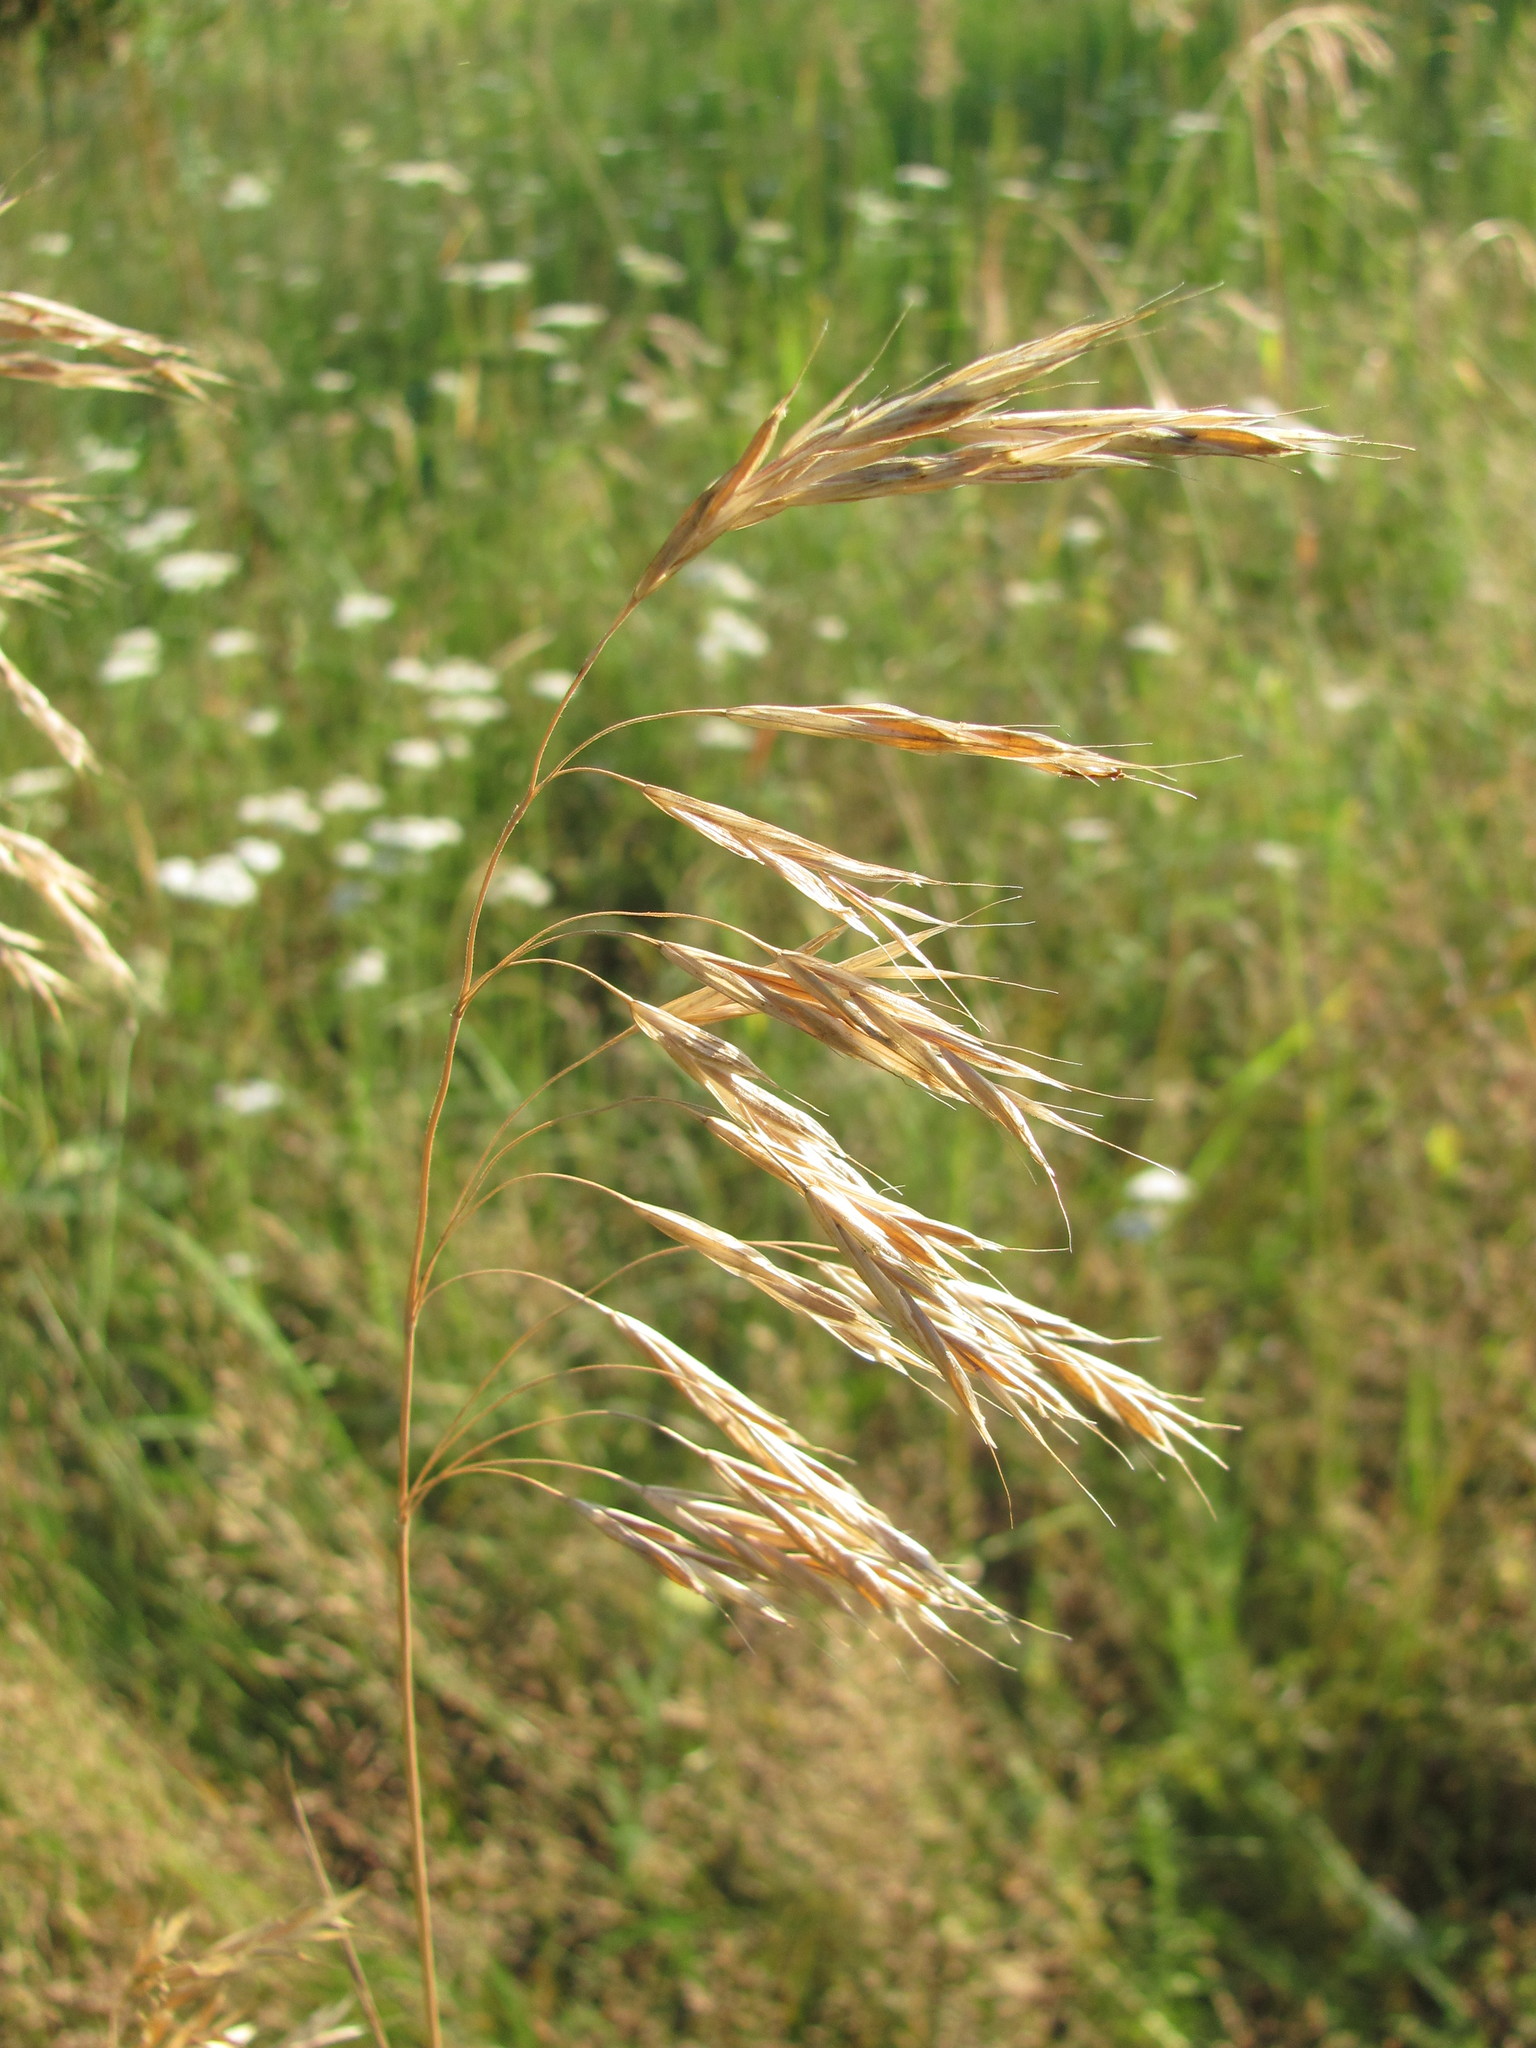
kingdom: Plantae
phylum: Tracheophyta
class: Liliopsida
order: Poales
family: Poaceae
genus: Bromus
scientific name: Bromus riparius
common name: Meadow brome
